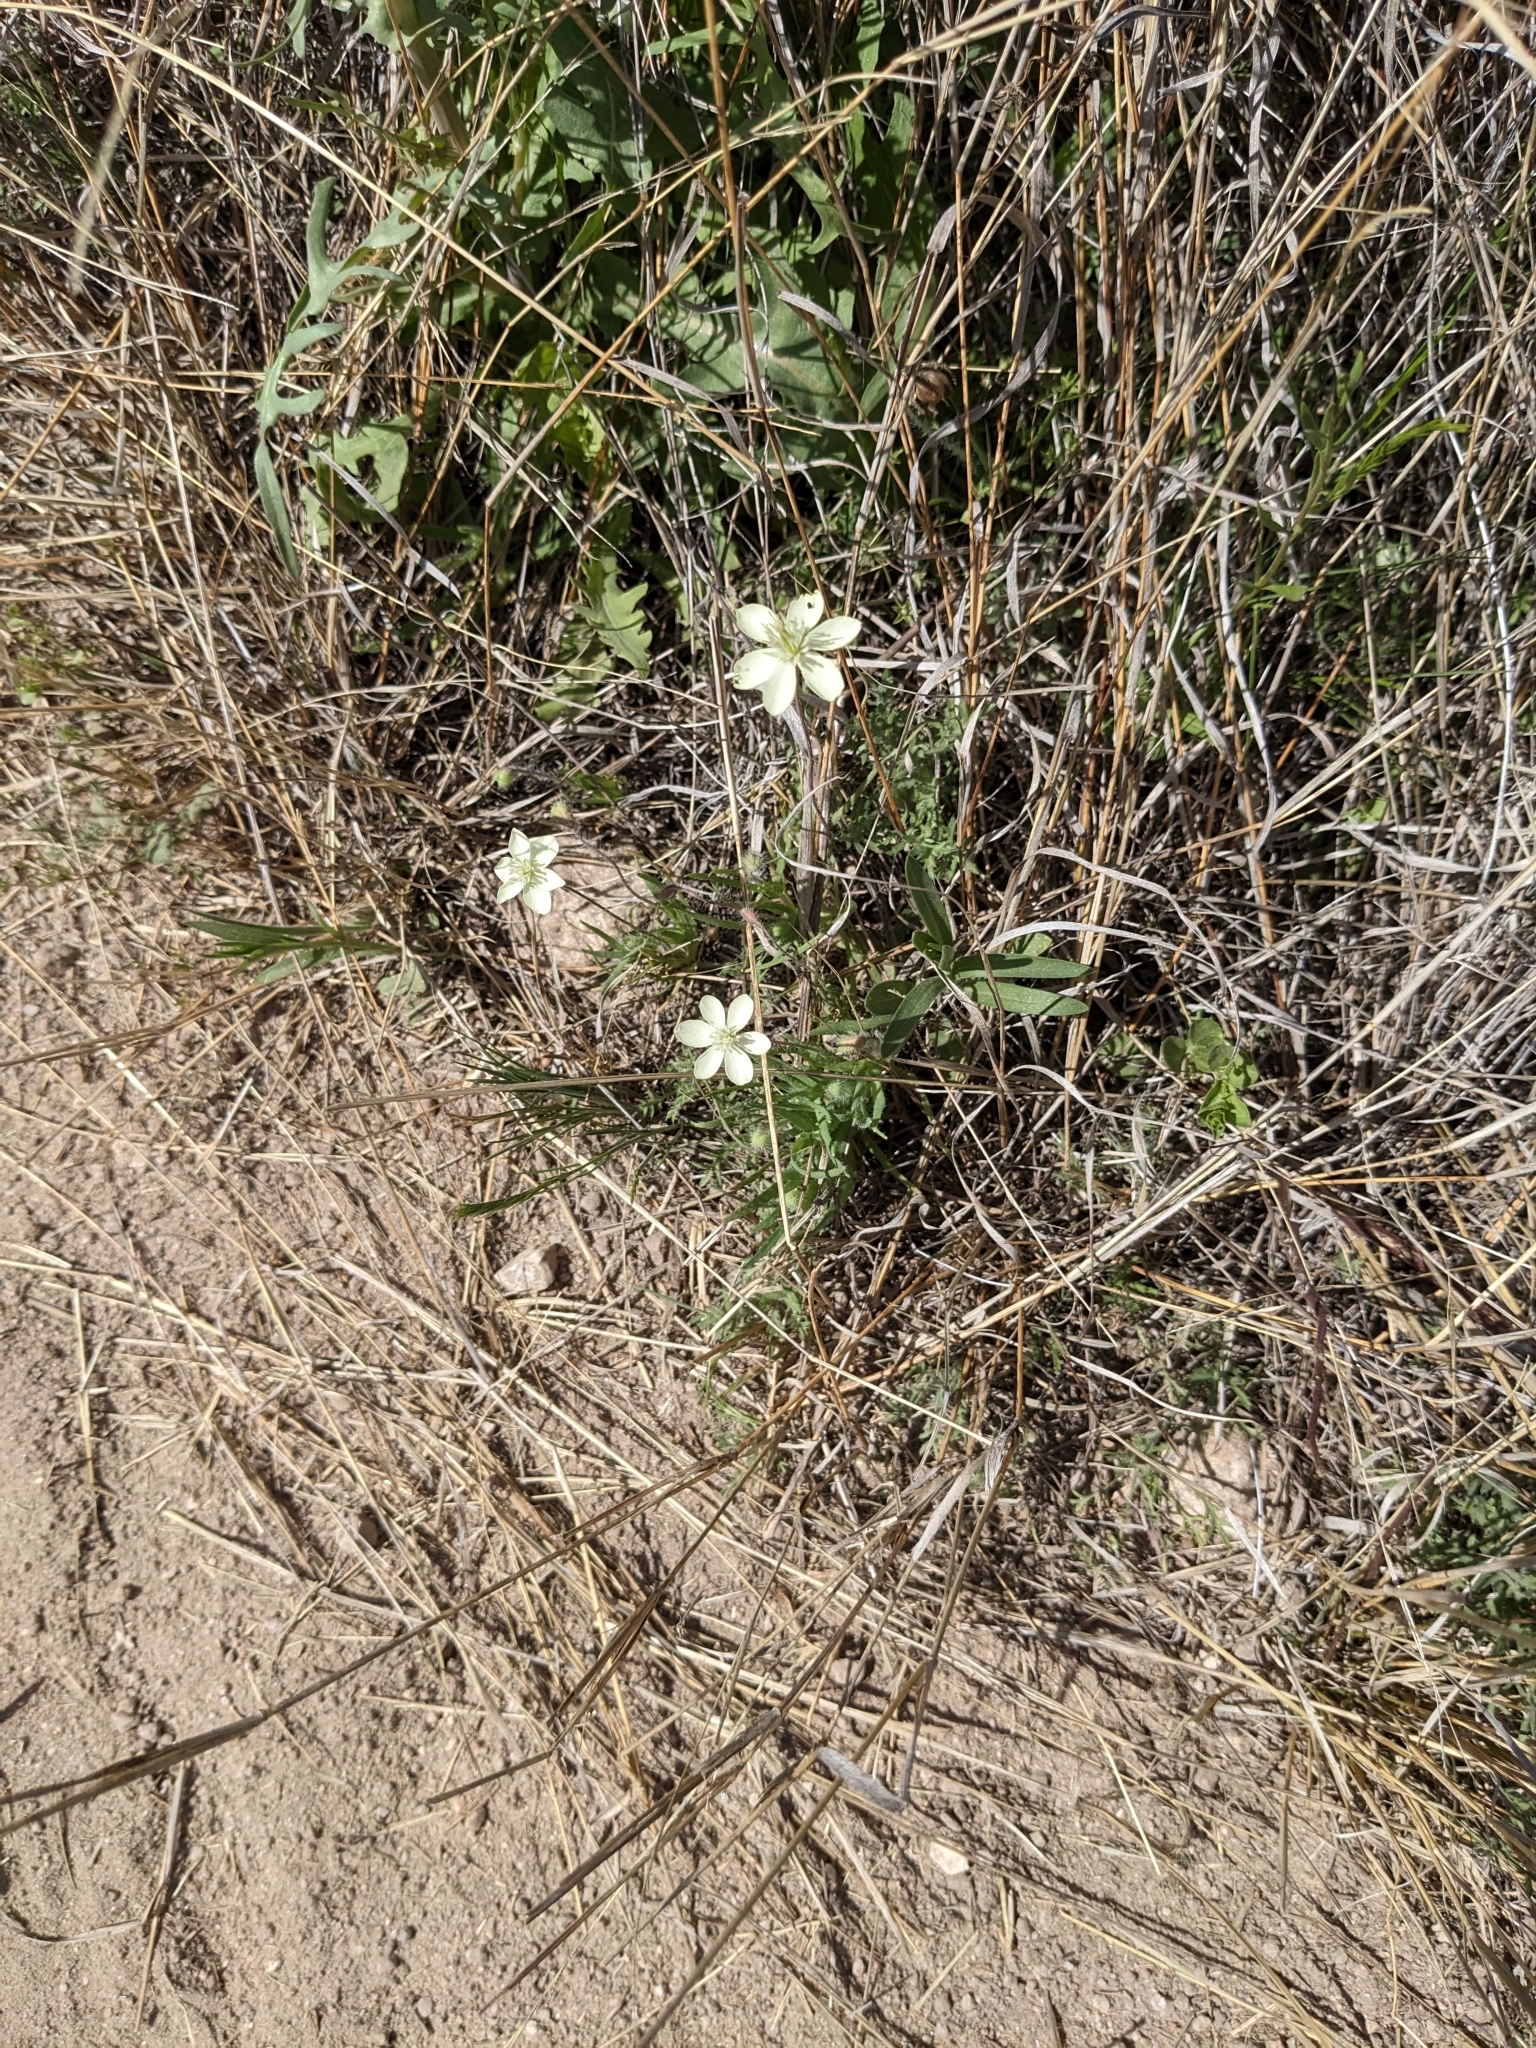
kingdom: Plantae
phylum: Tracheophyta
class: Magnoliopsida
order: Ranunculales
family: Papaveraceae
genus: Platystemon
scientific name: Platystemon californicus
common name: Cream-cups
